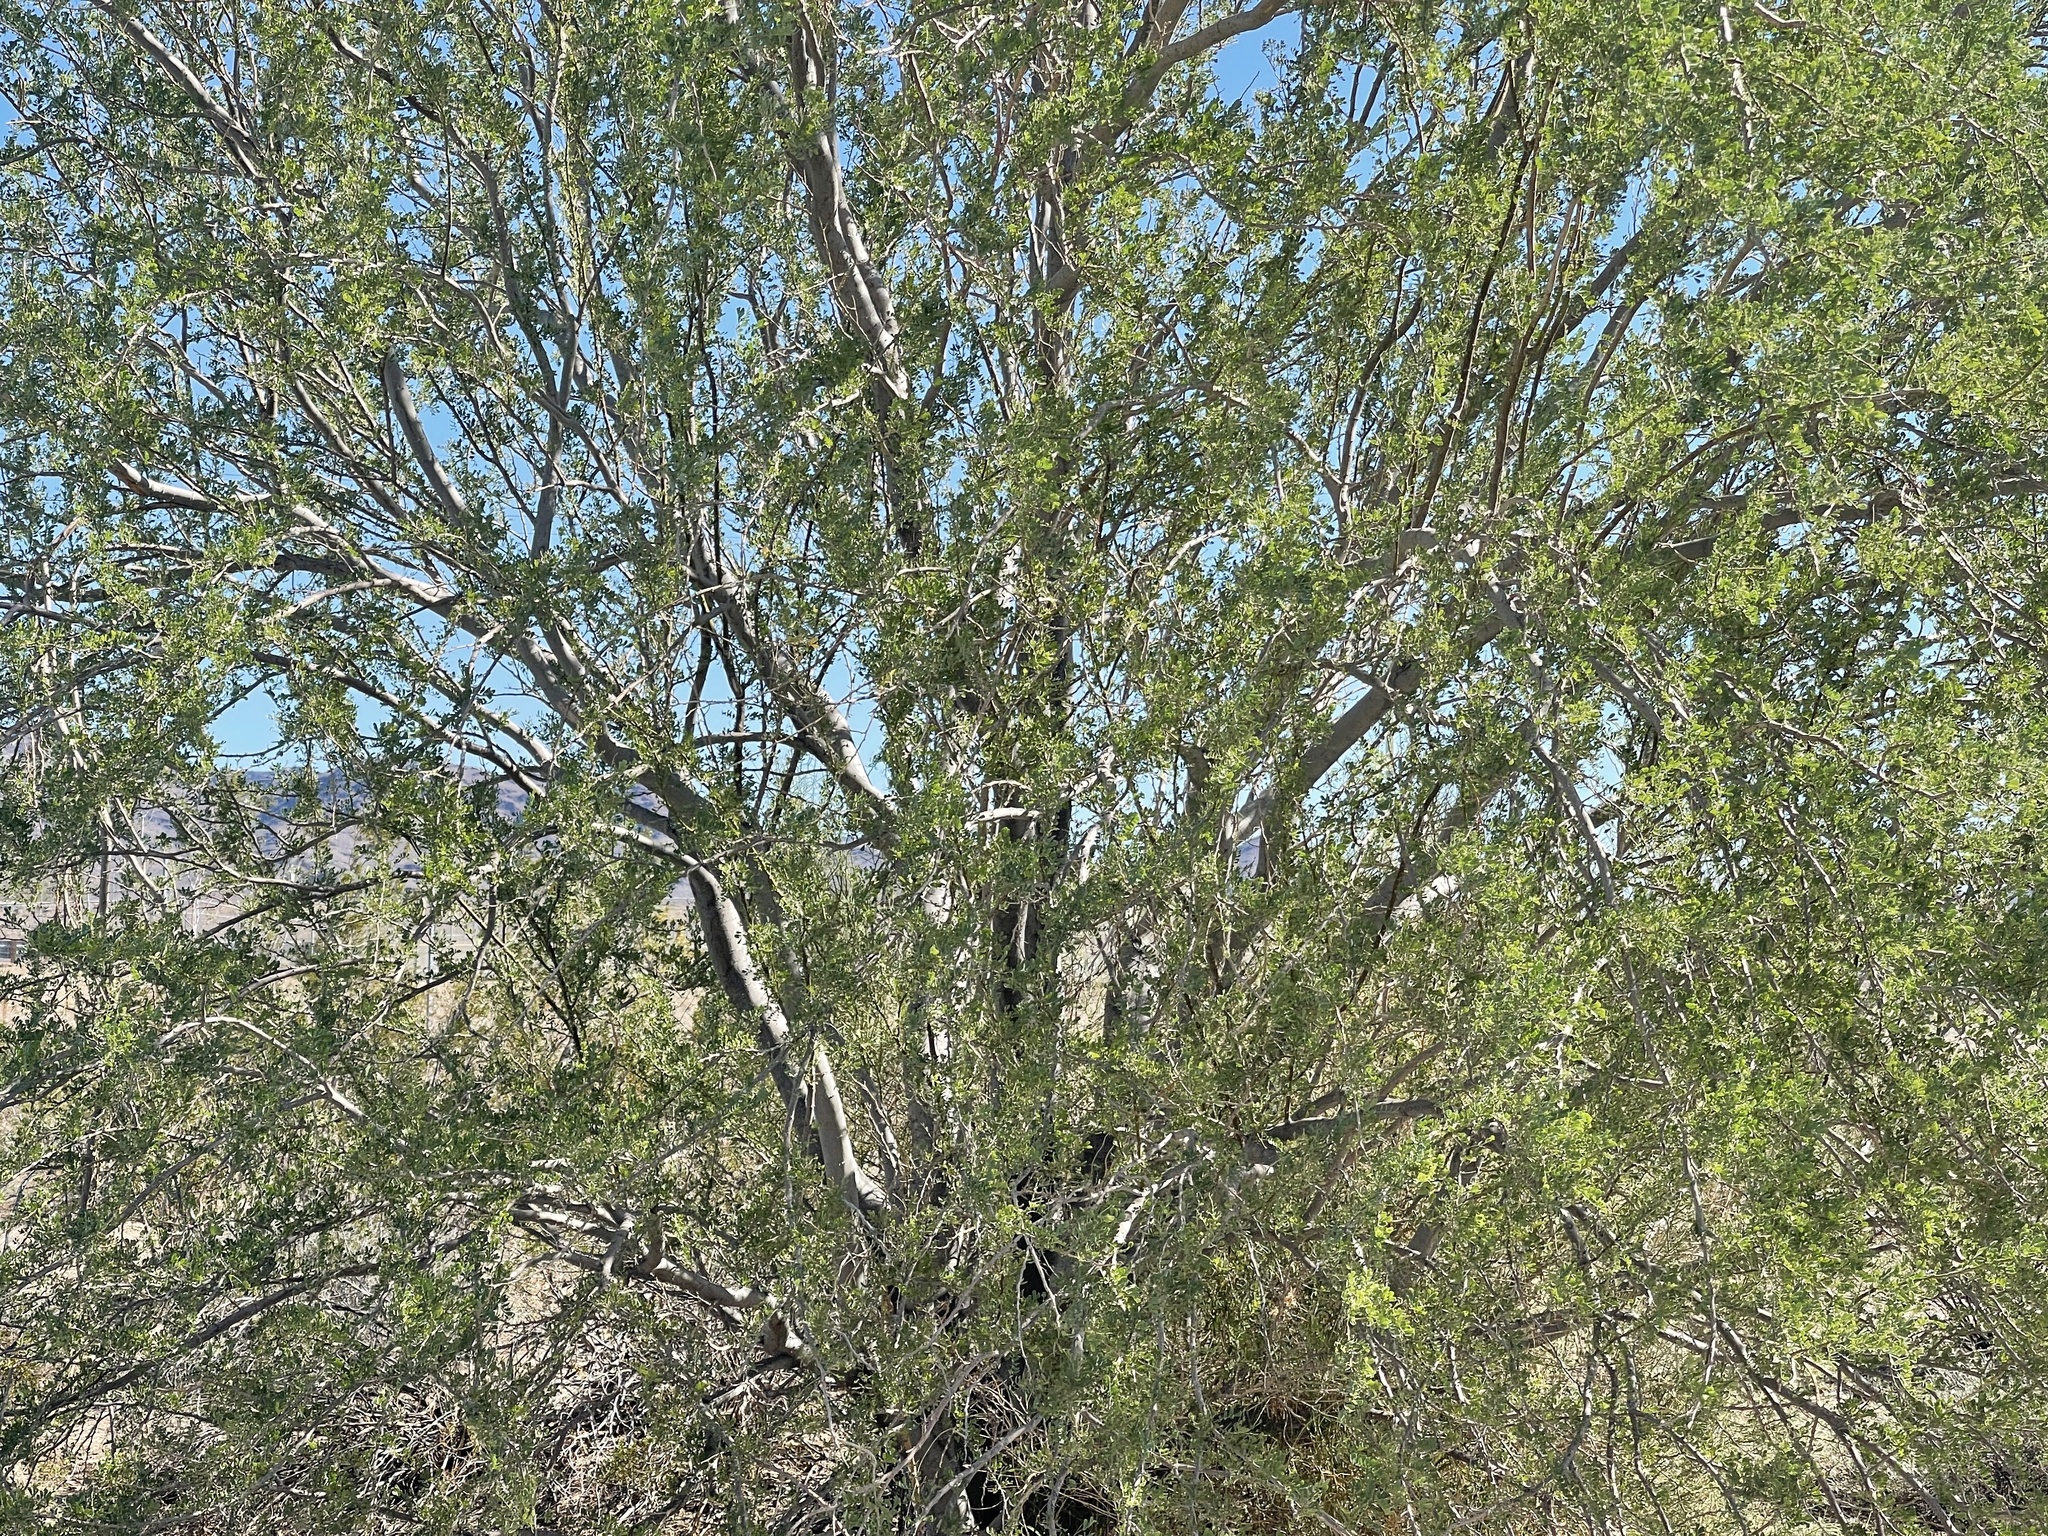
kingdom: Plantae
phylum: Tracheophyta
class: Magnoliopsida
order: Fabales
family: Fabaceae
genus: Olneya
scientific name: Olneya tesota
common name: Desert ironwood
